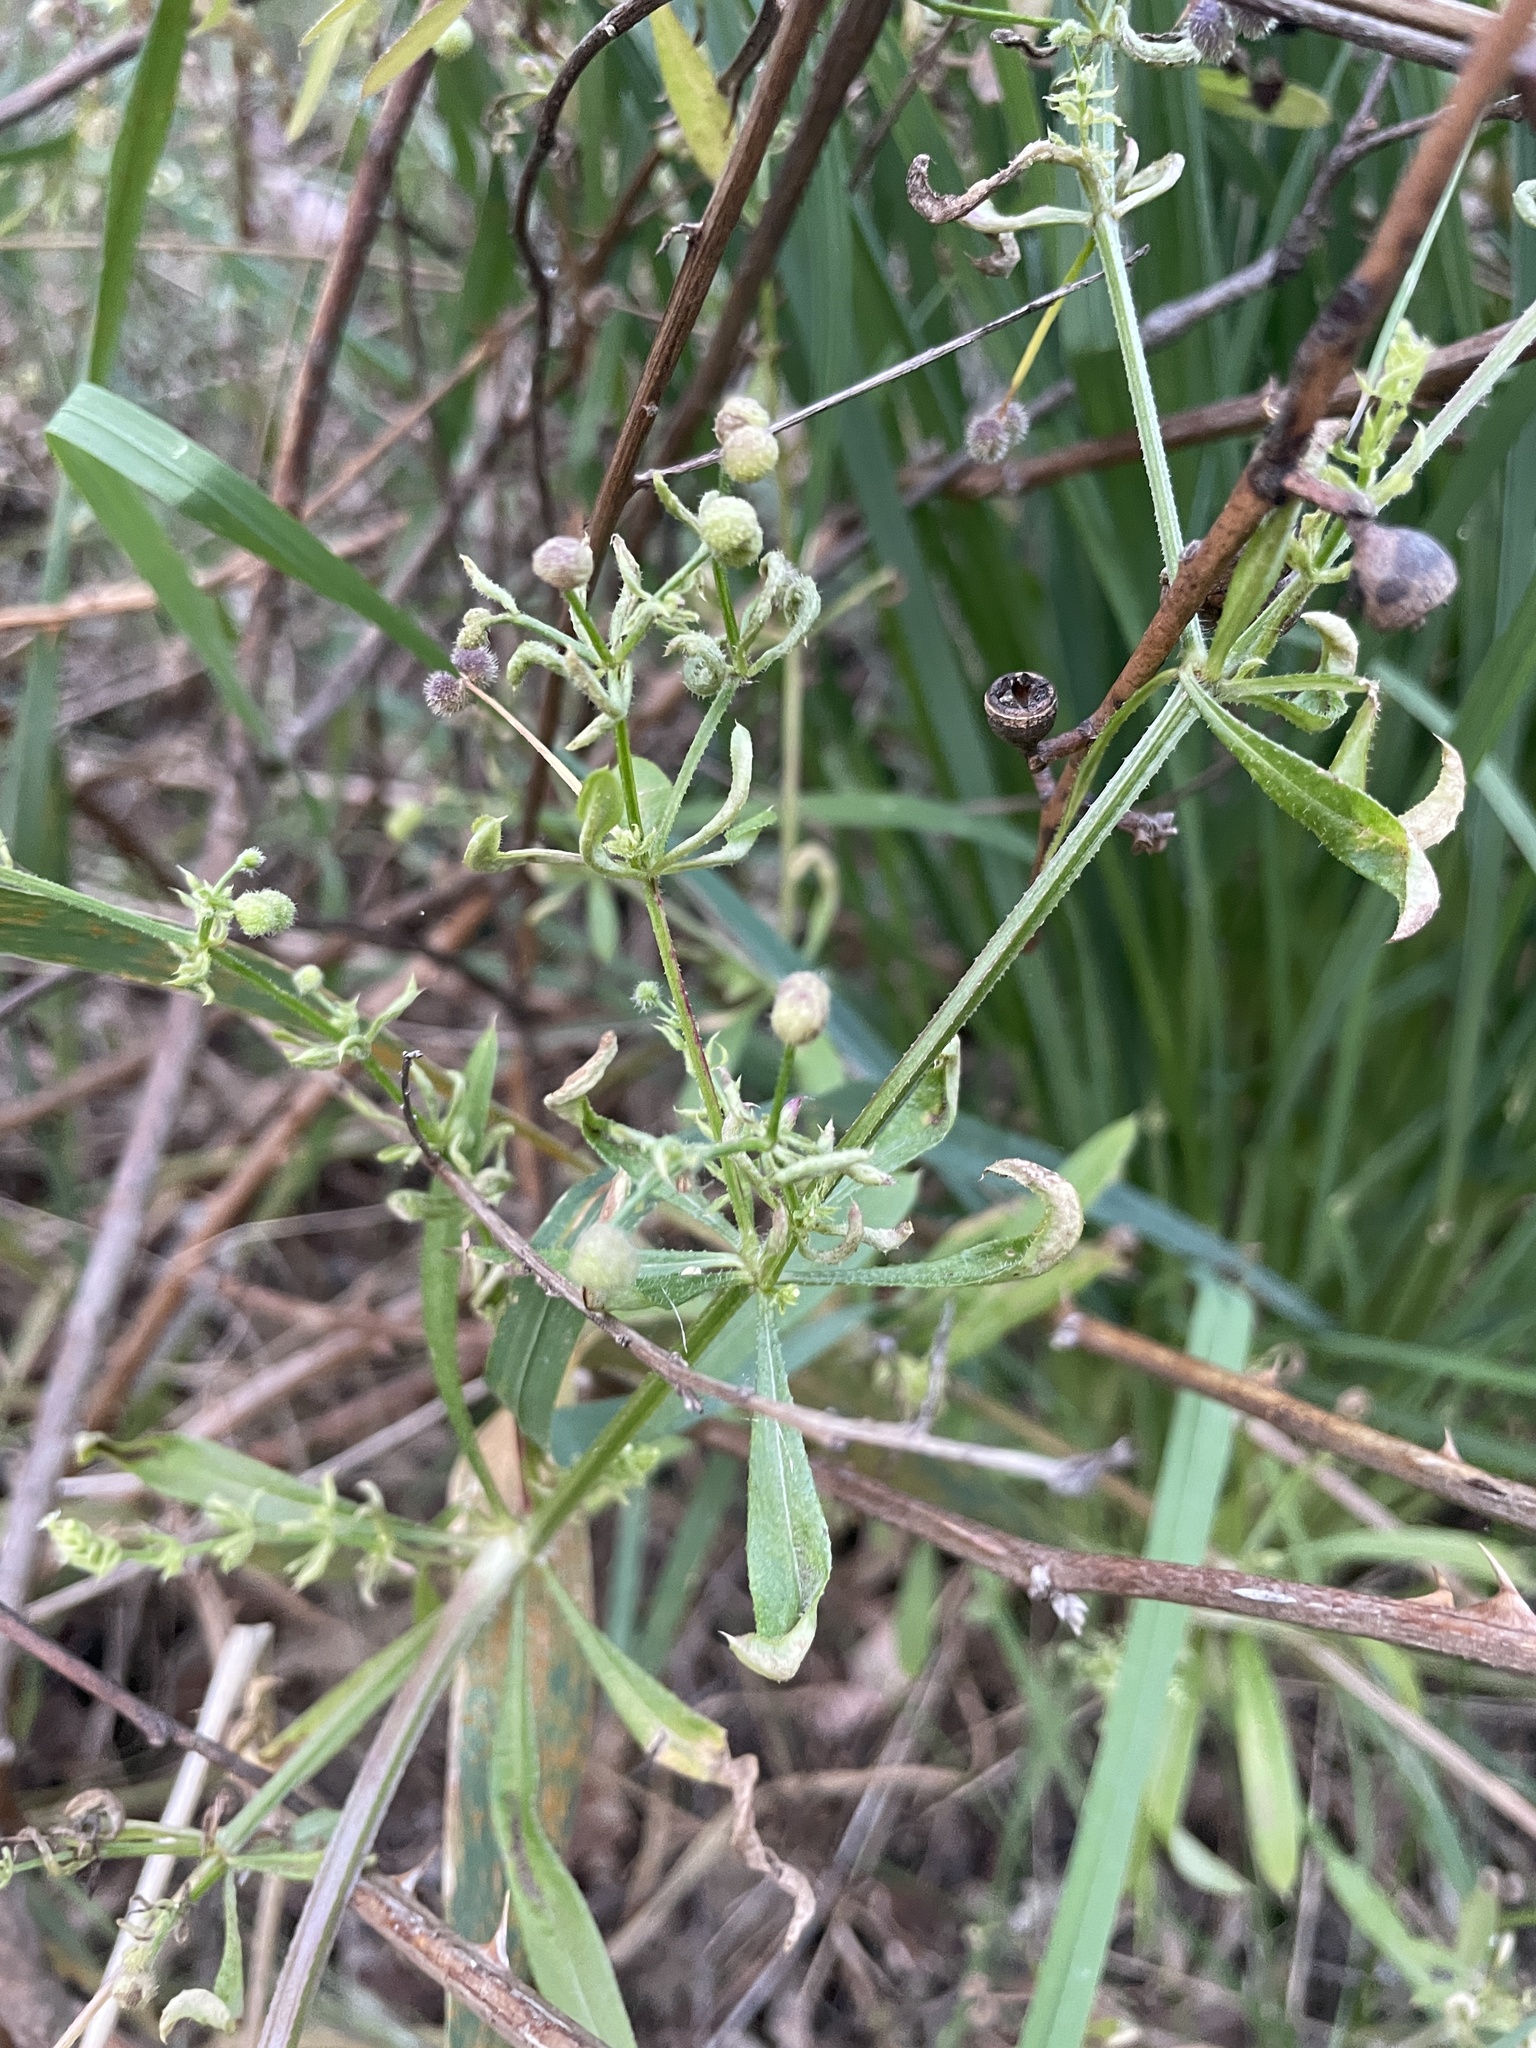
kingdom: Plantae
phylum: Tracheophyta
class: Magnoliopsida
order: Gentianales
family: Rubiaceae
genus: Galium
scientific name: Galium aparine
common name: Cleavers
